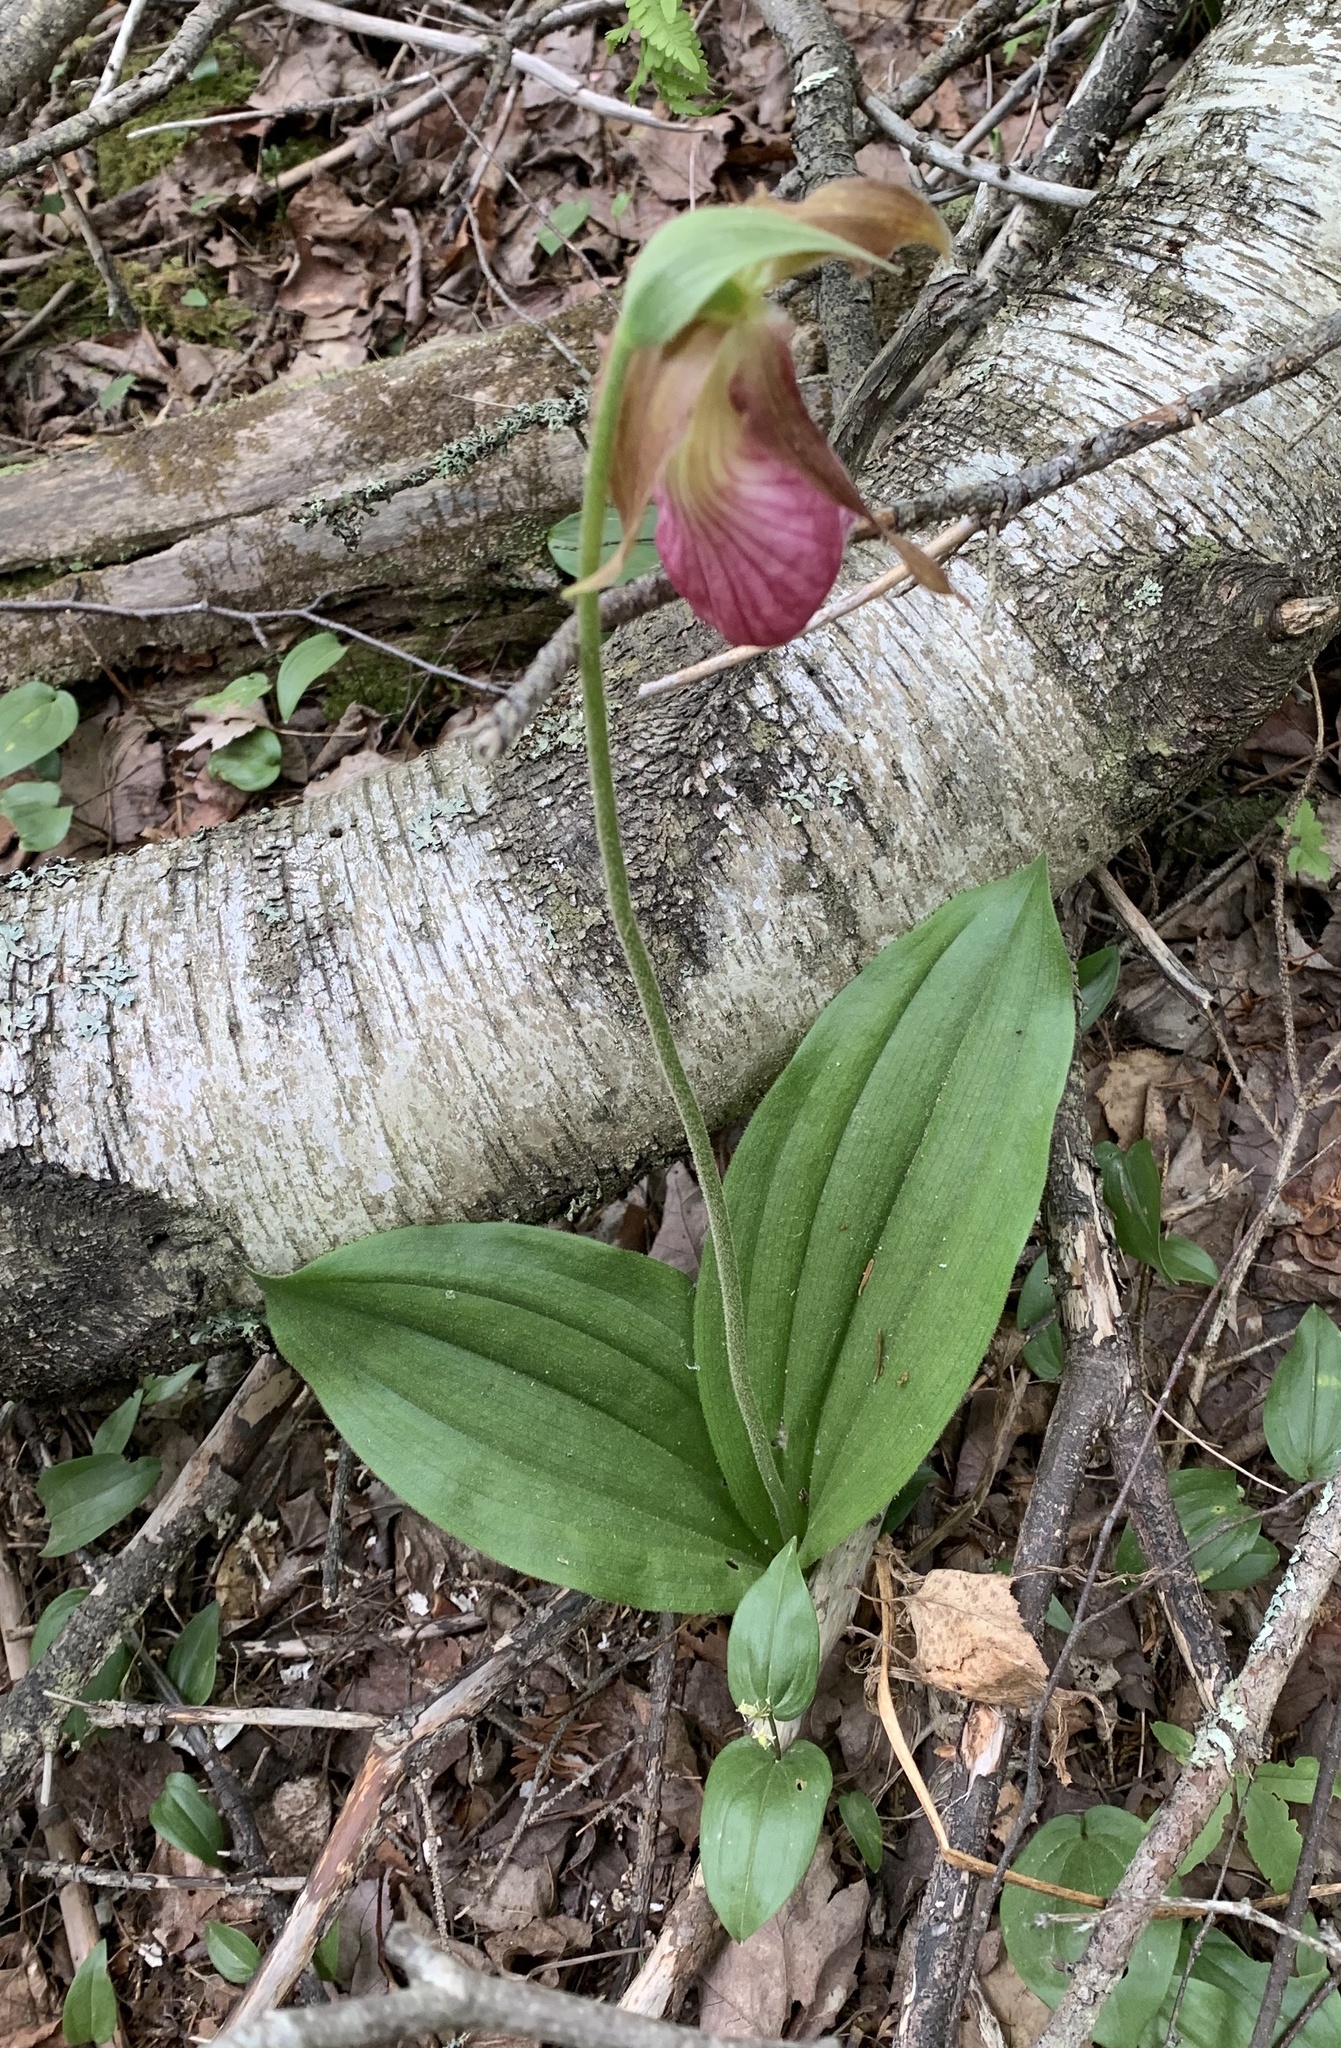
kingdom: Plantae
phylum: Tracheophyta
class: Liliopsida
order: Asparagales
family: Orchidaceae
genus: Cypripedium
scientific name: Cypripedium acaule
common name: Pink lady's-slipper
